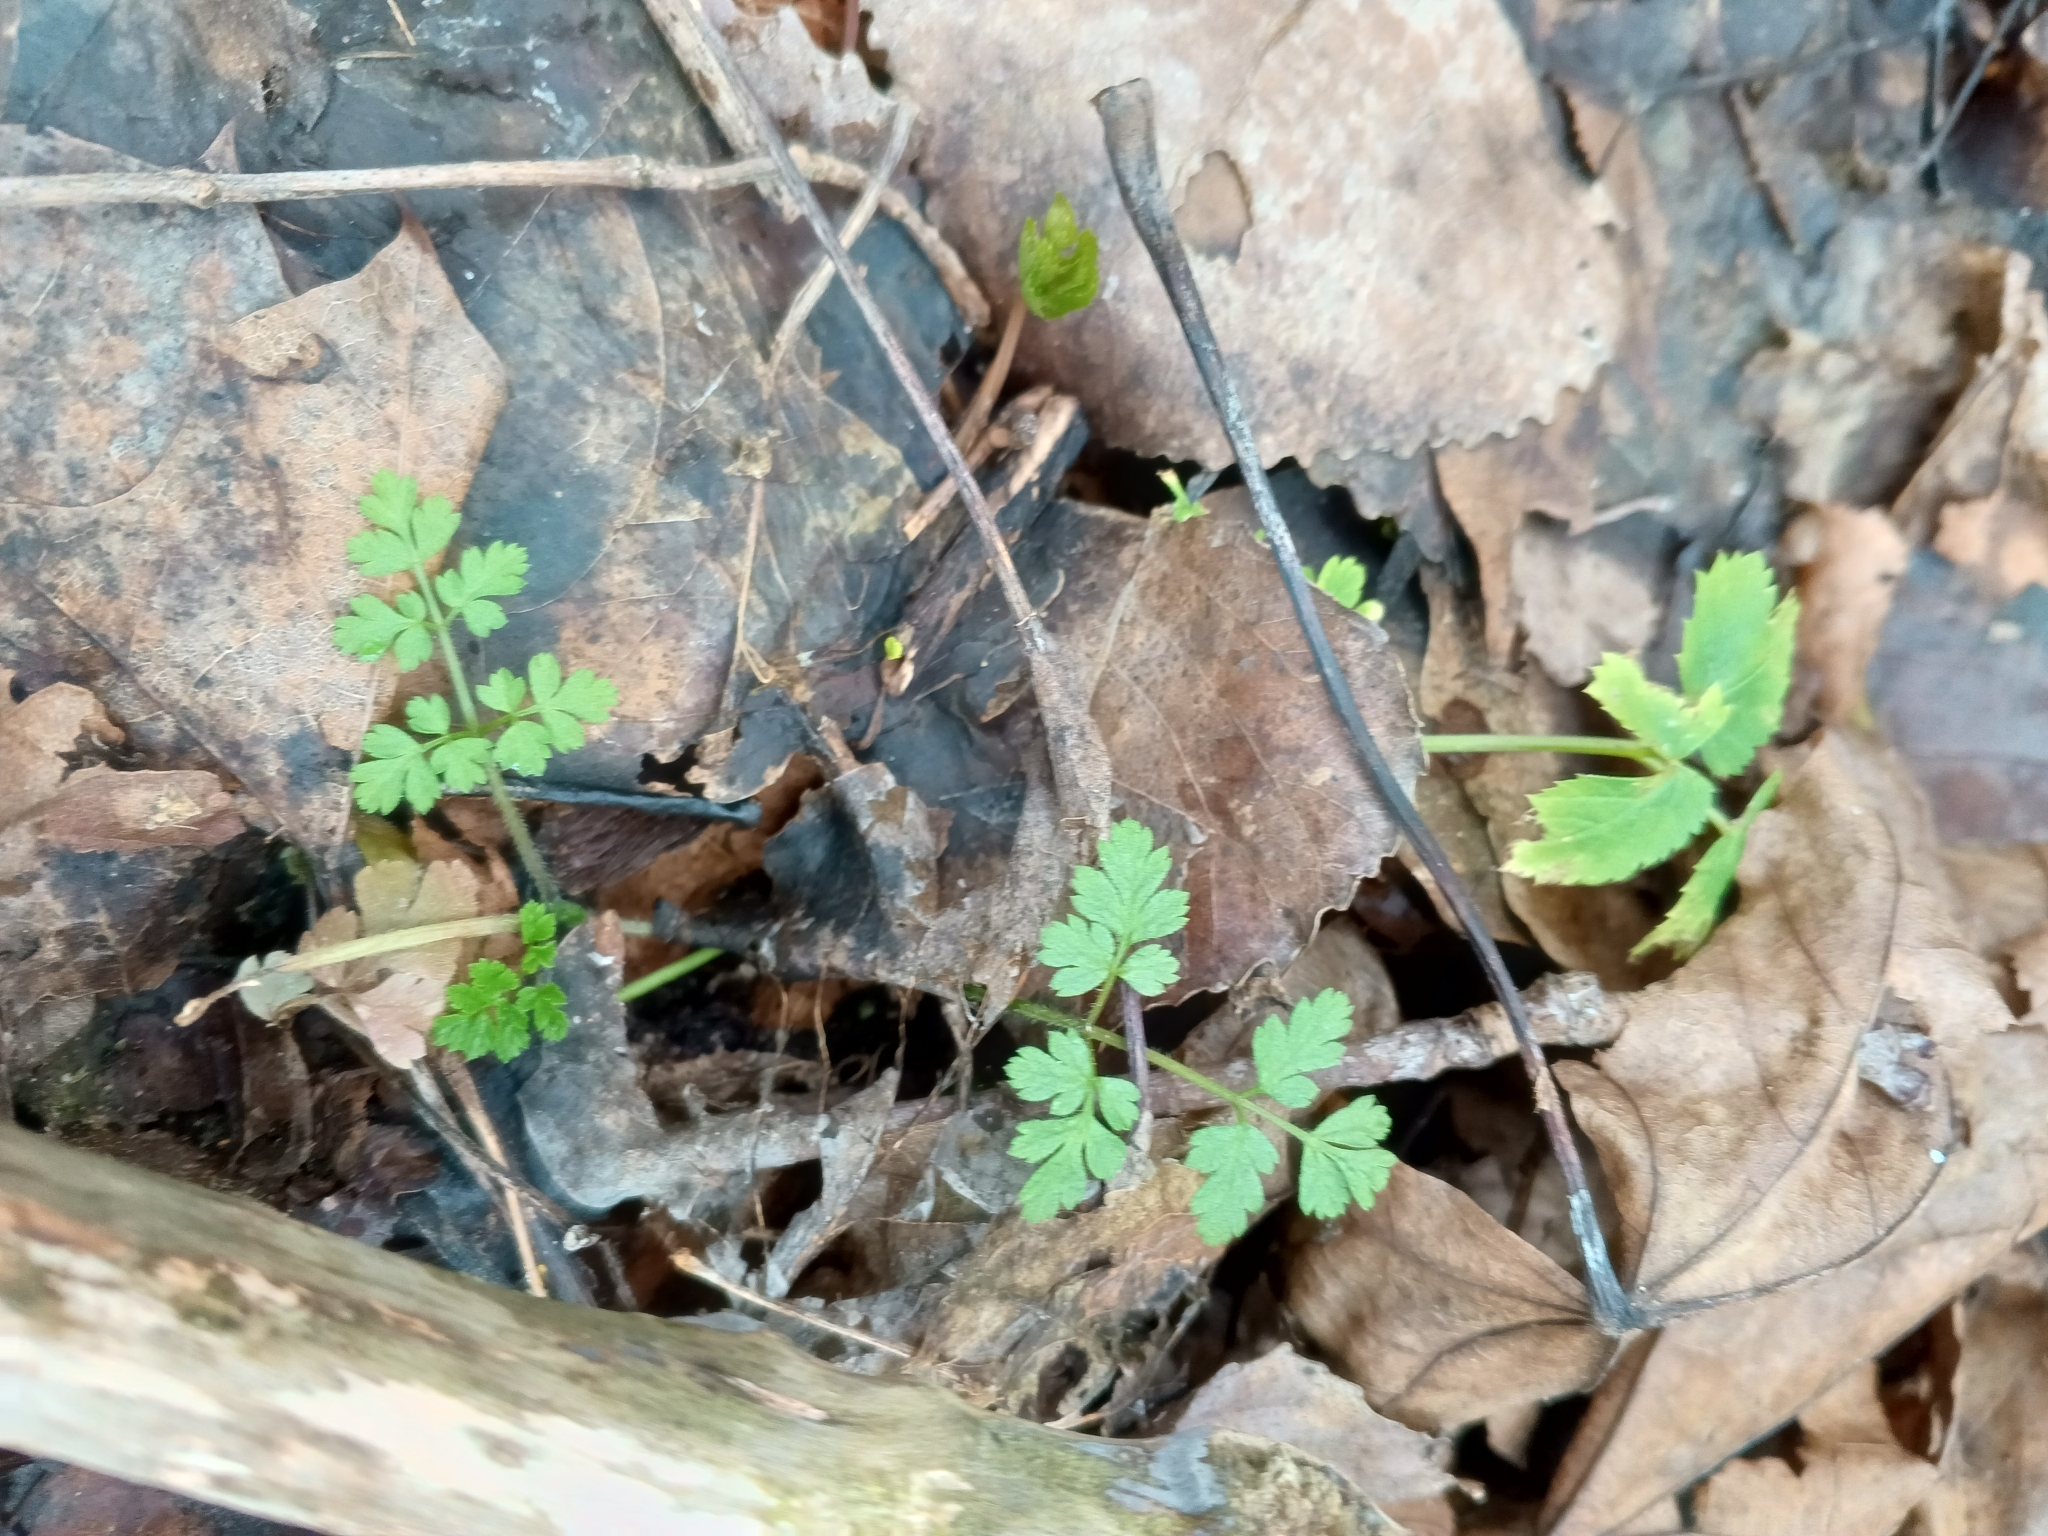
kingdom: Plantae
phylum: Tracheophyta
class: Magnoliopsida
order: Apiales
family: Apiaceae
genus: Chaerophyllum
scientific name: Chaerophyllum temulum
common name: Rough chervil
